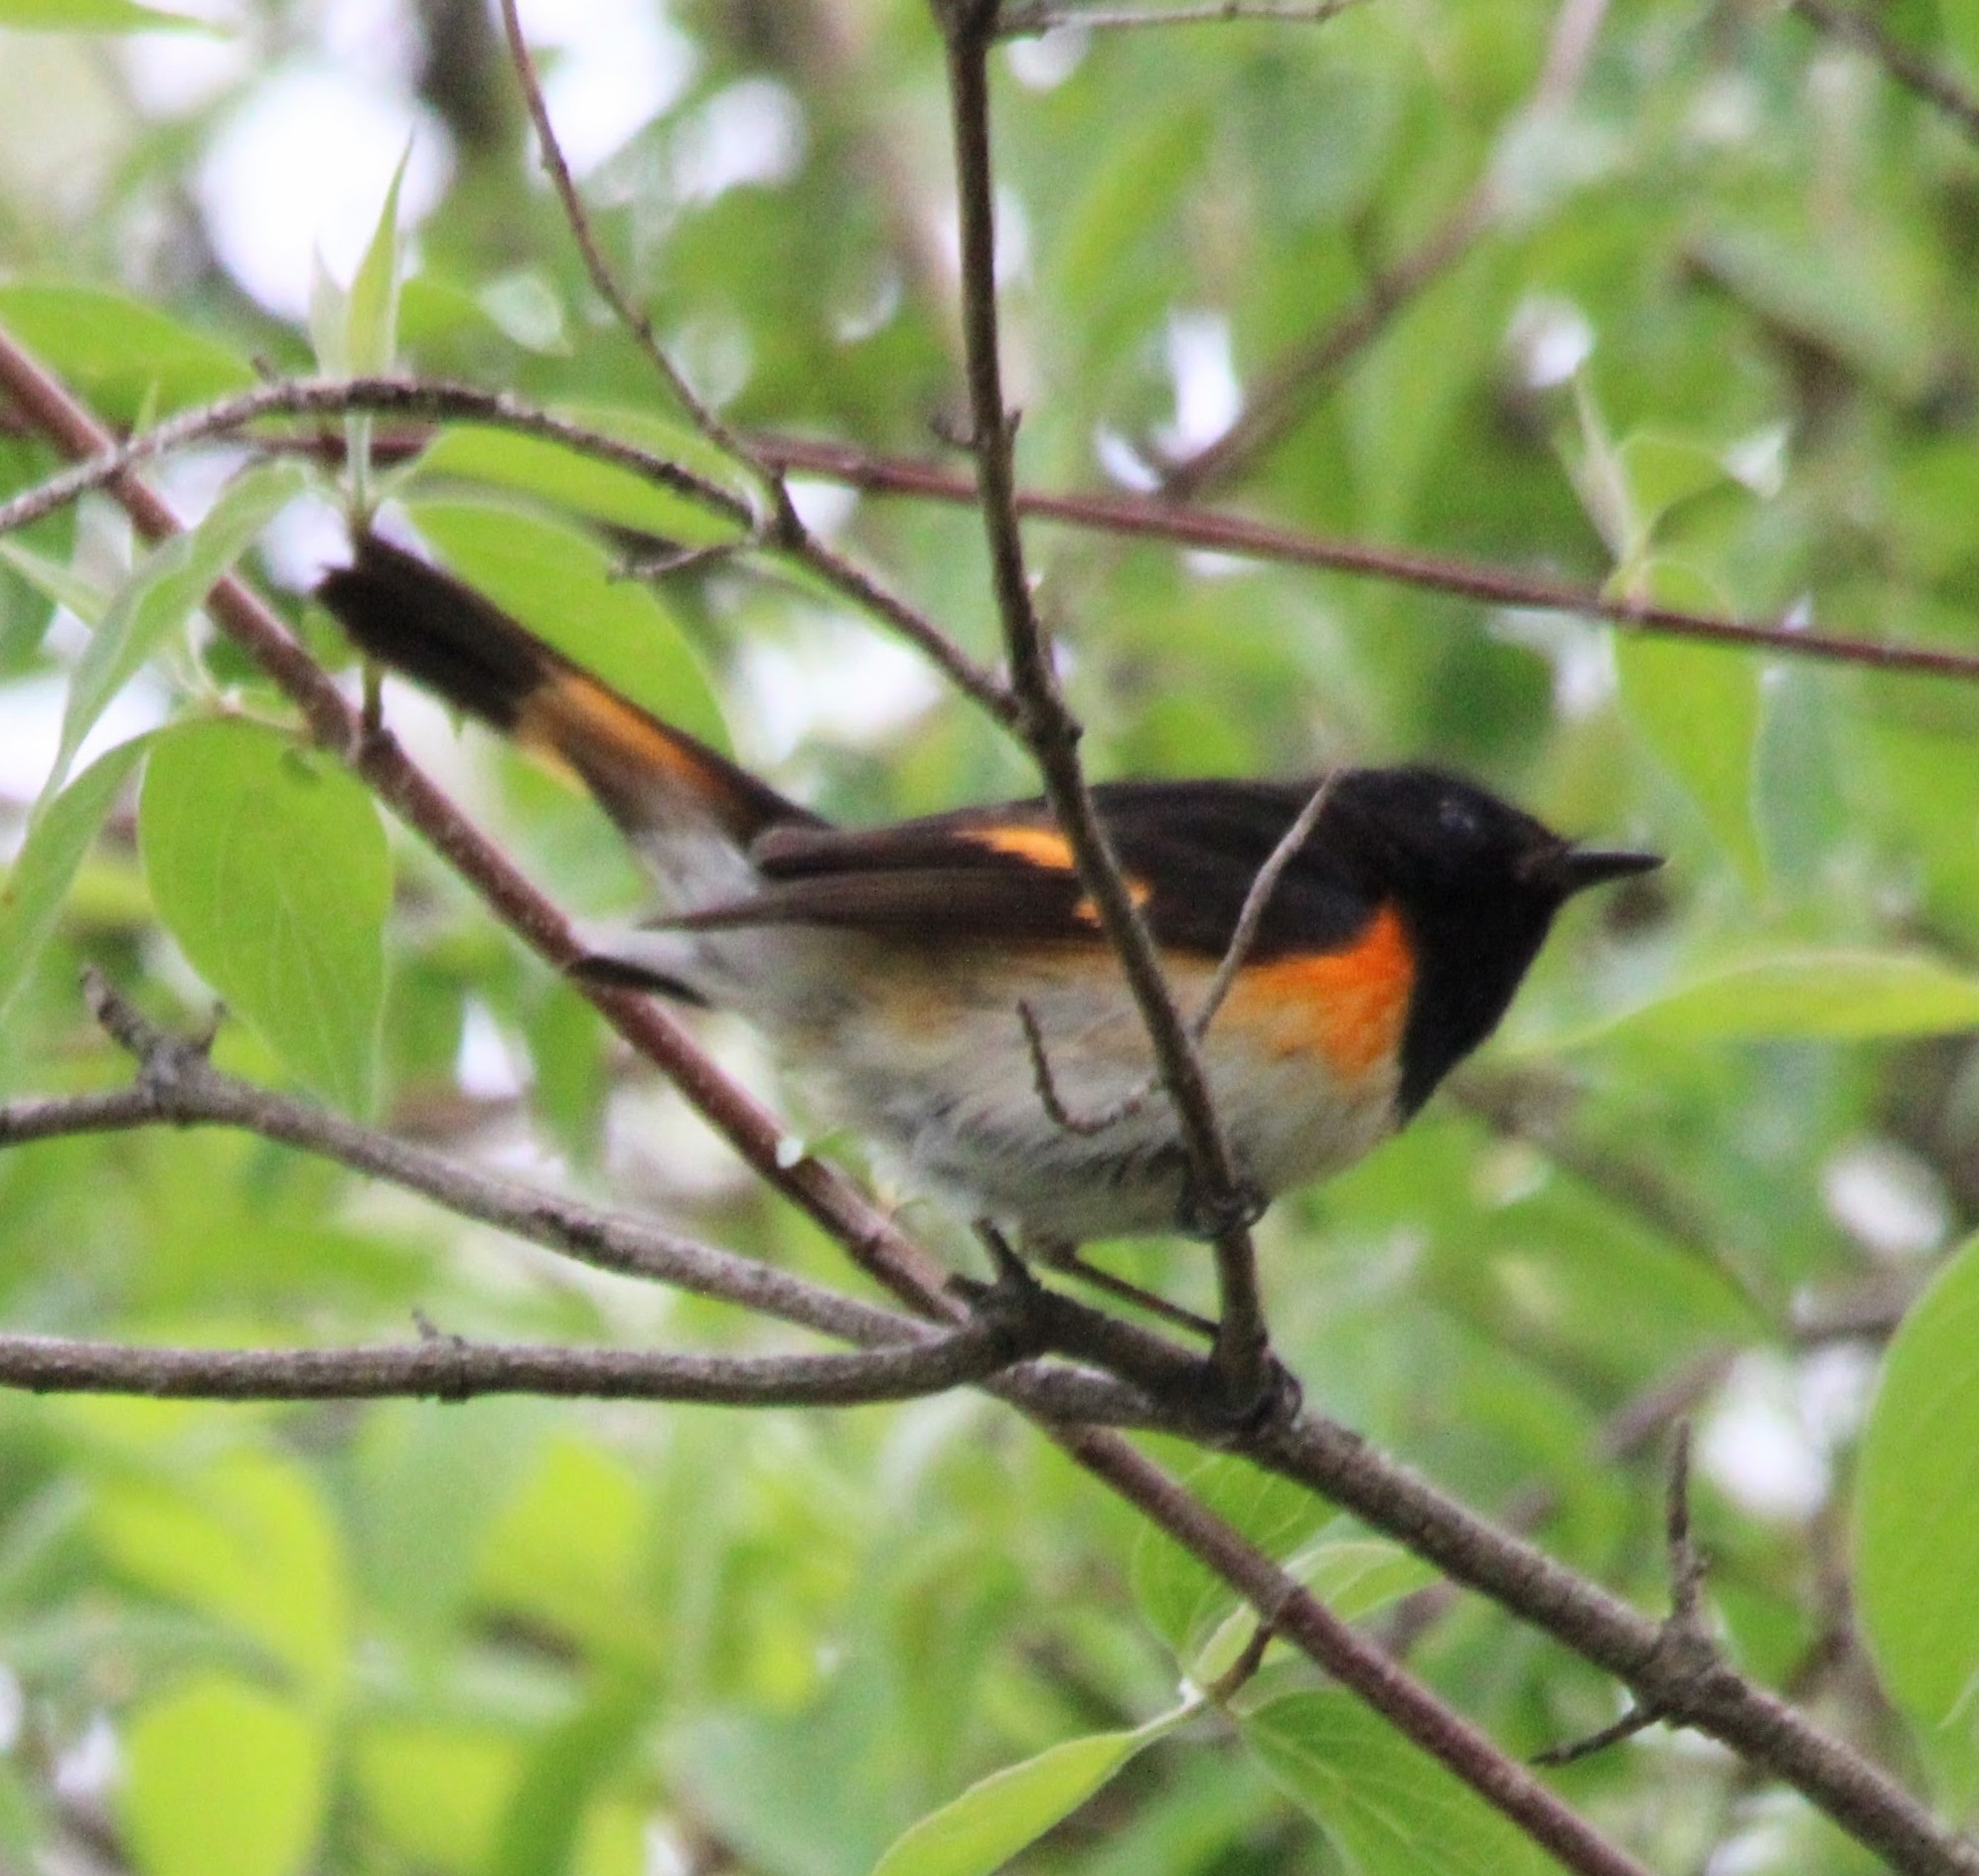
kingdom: Animalia
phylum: Chordata
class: Aves
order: Passeriformes
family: Parulidae
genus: Setophaga
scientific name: Setophaga ruticilla
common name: American redstart
